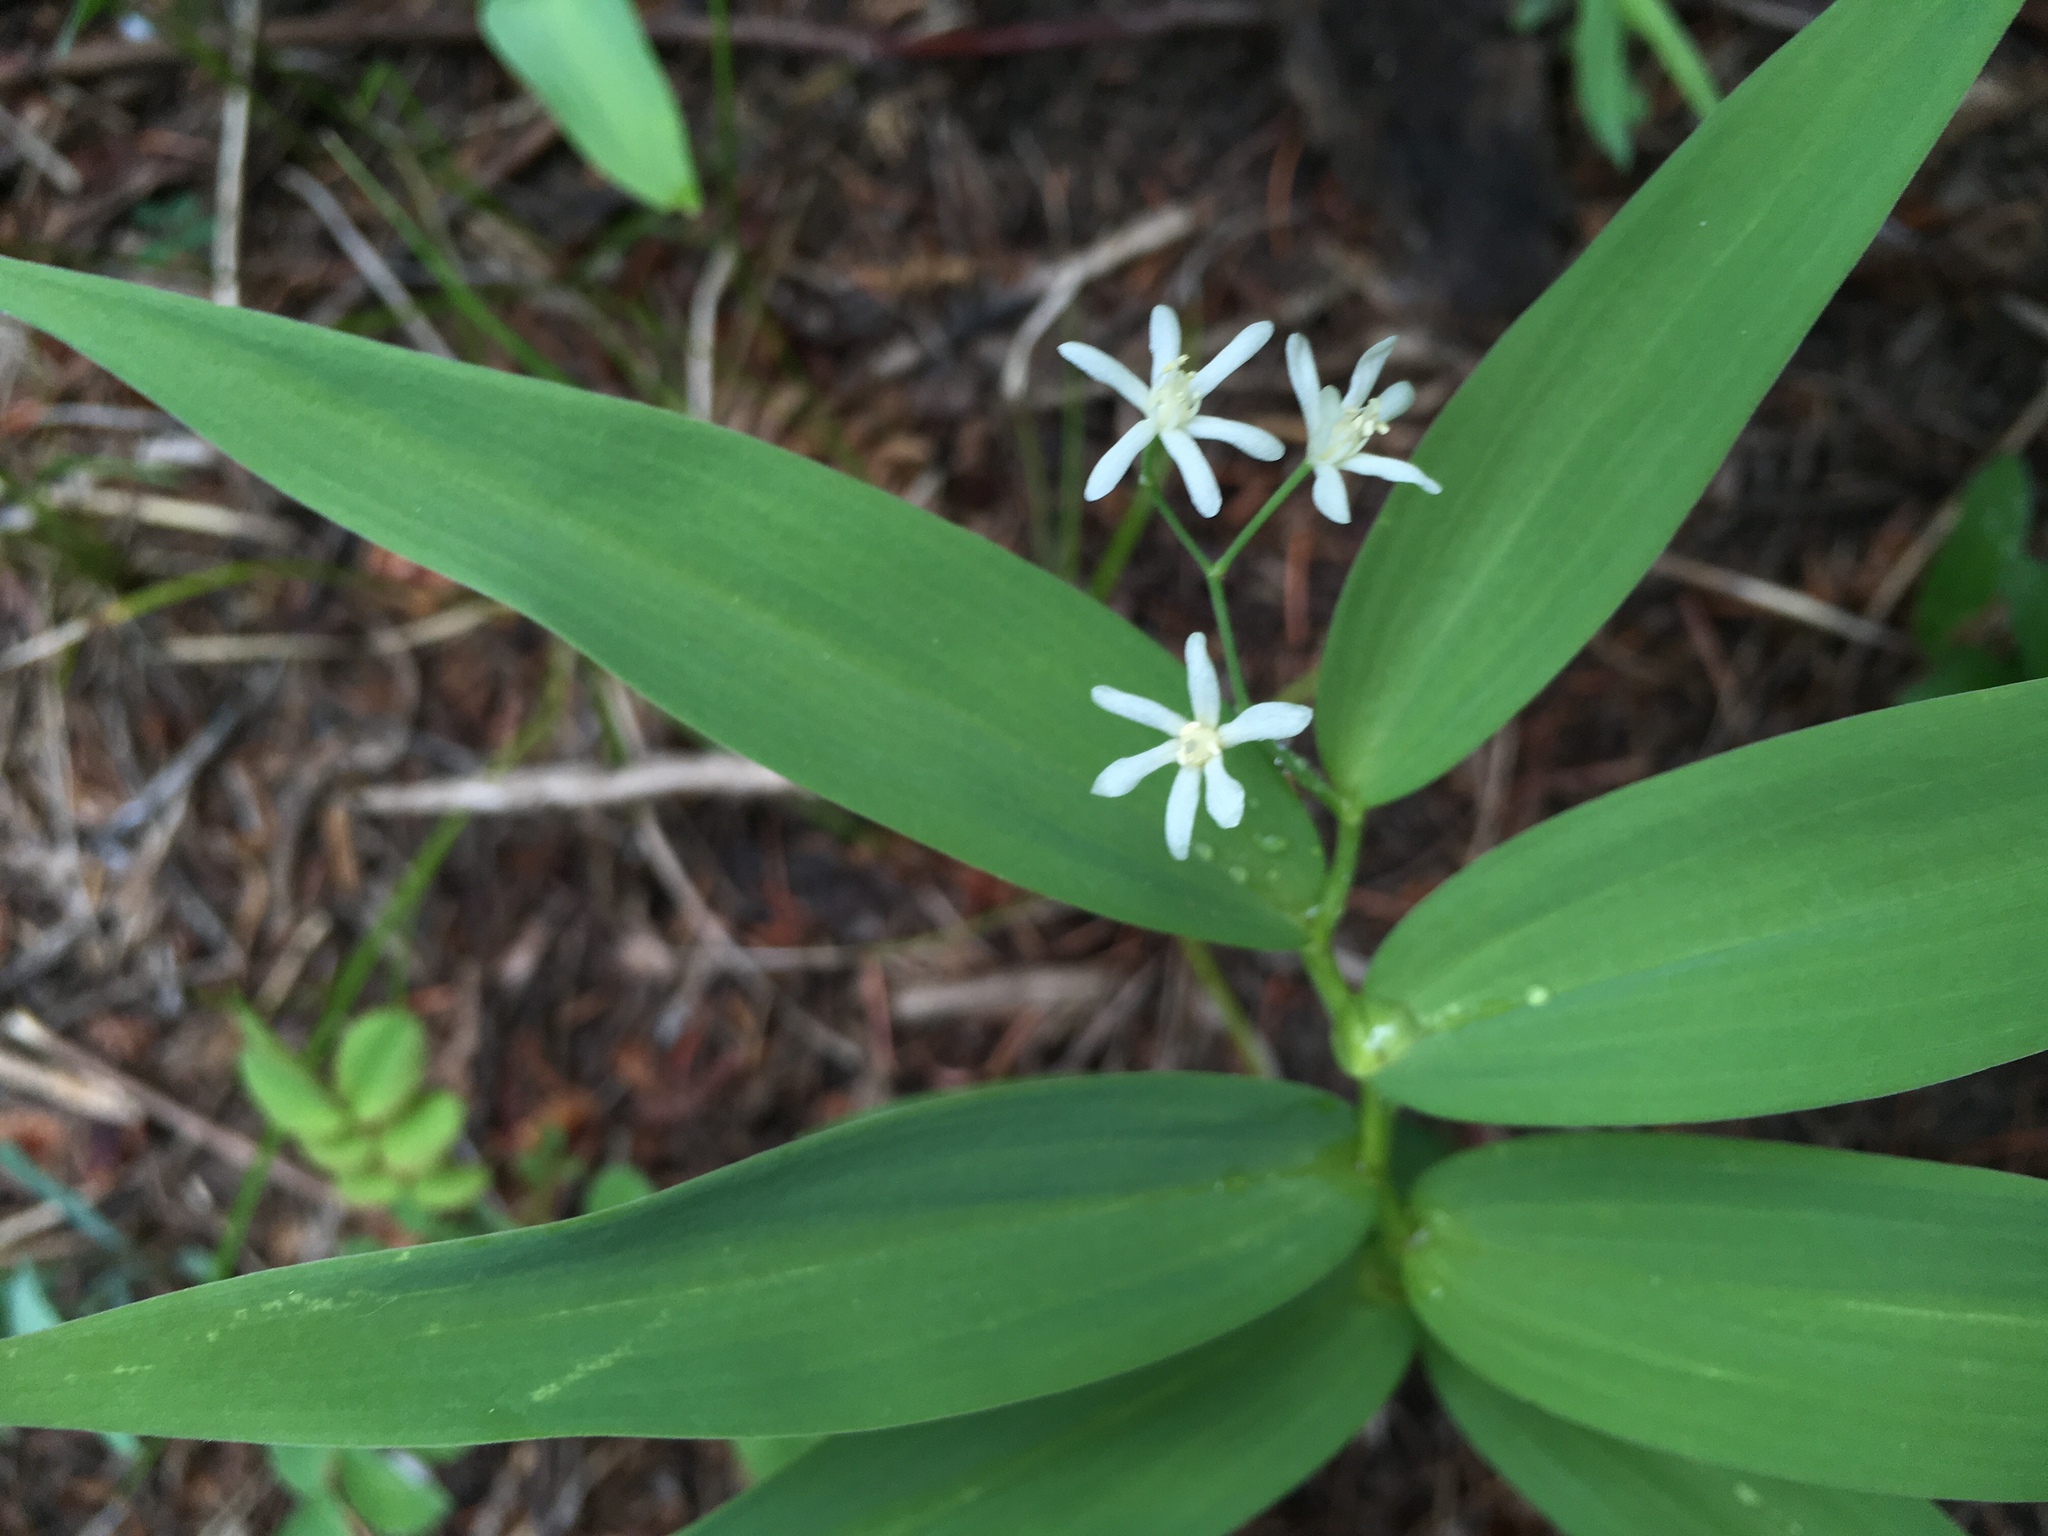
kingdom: Plantae
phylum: Tracheophyta
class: Liliopsida
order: Asparagales
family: Asparagaceae
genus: Maianthemum
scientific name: Maianthemum stellatum
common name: Little false solomon's seal
